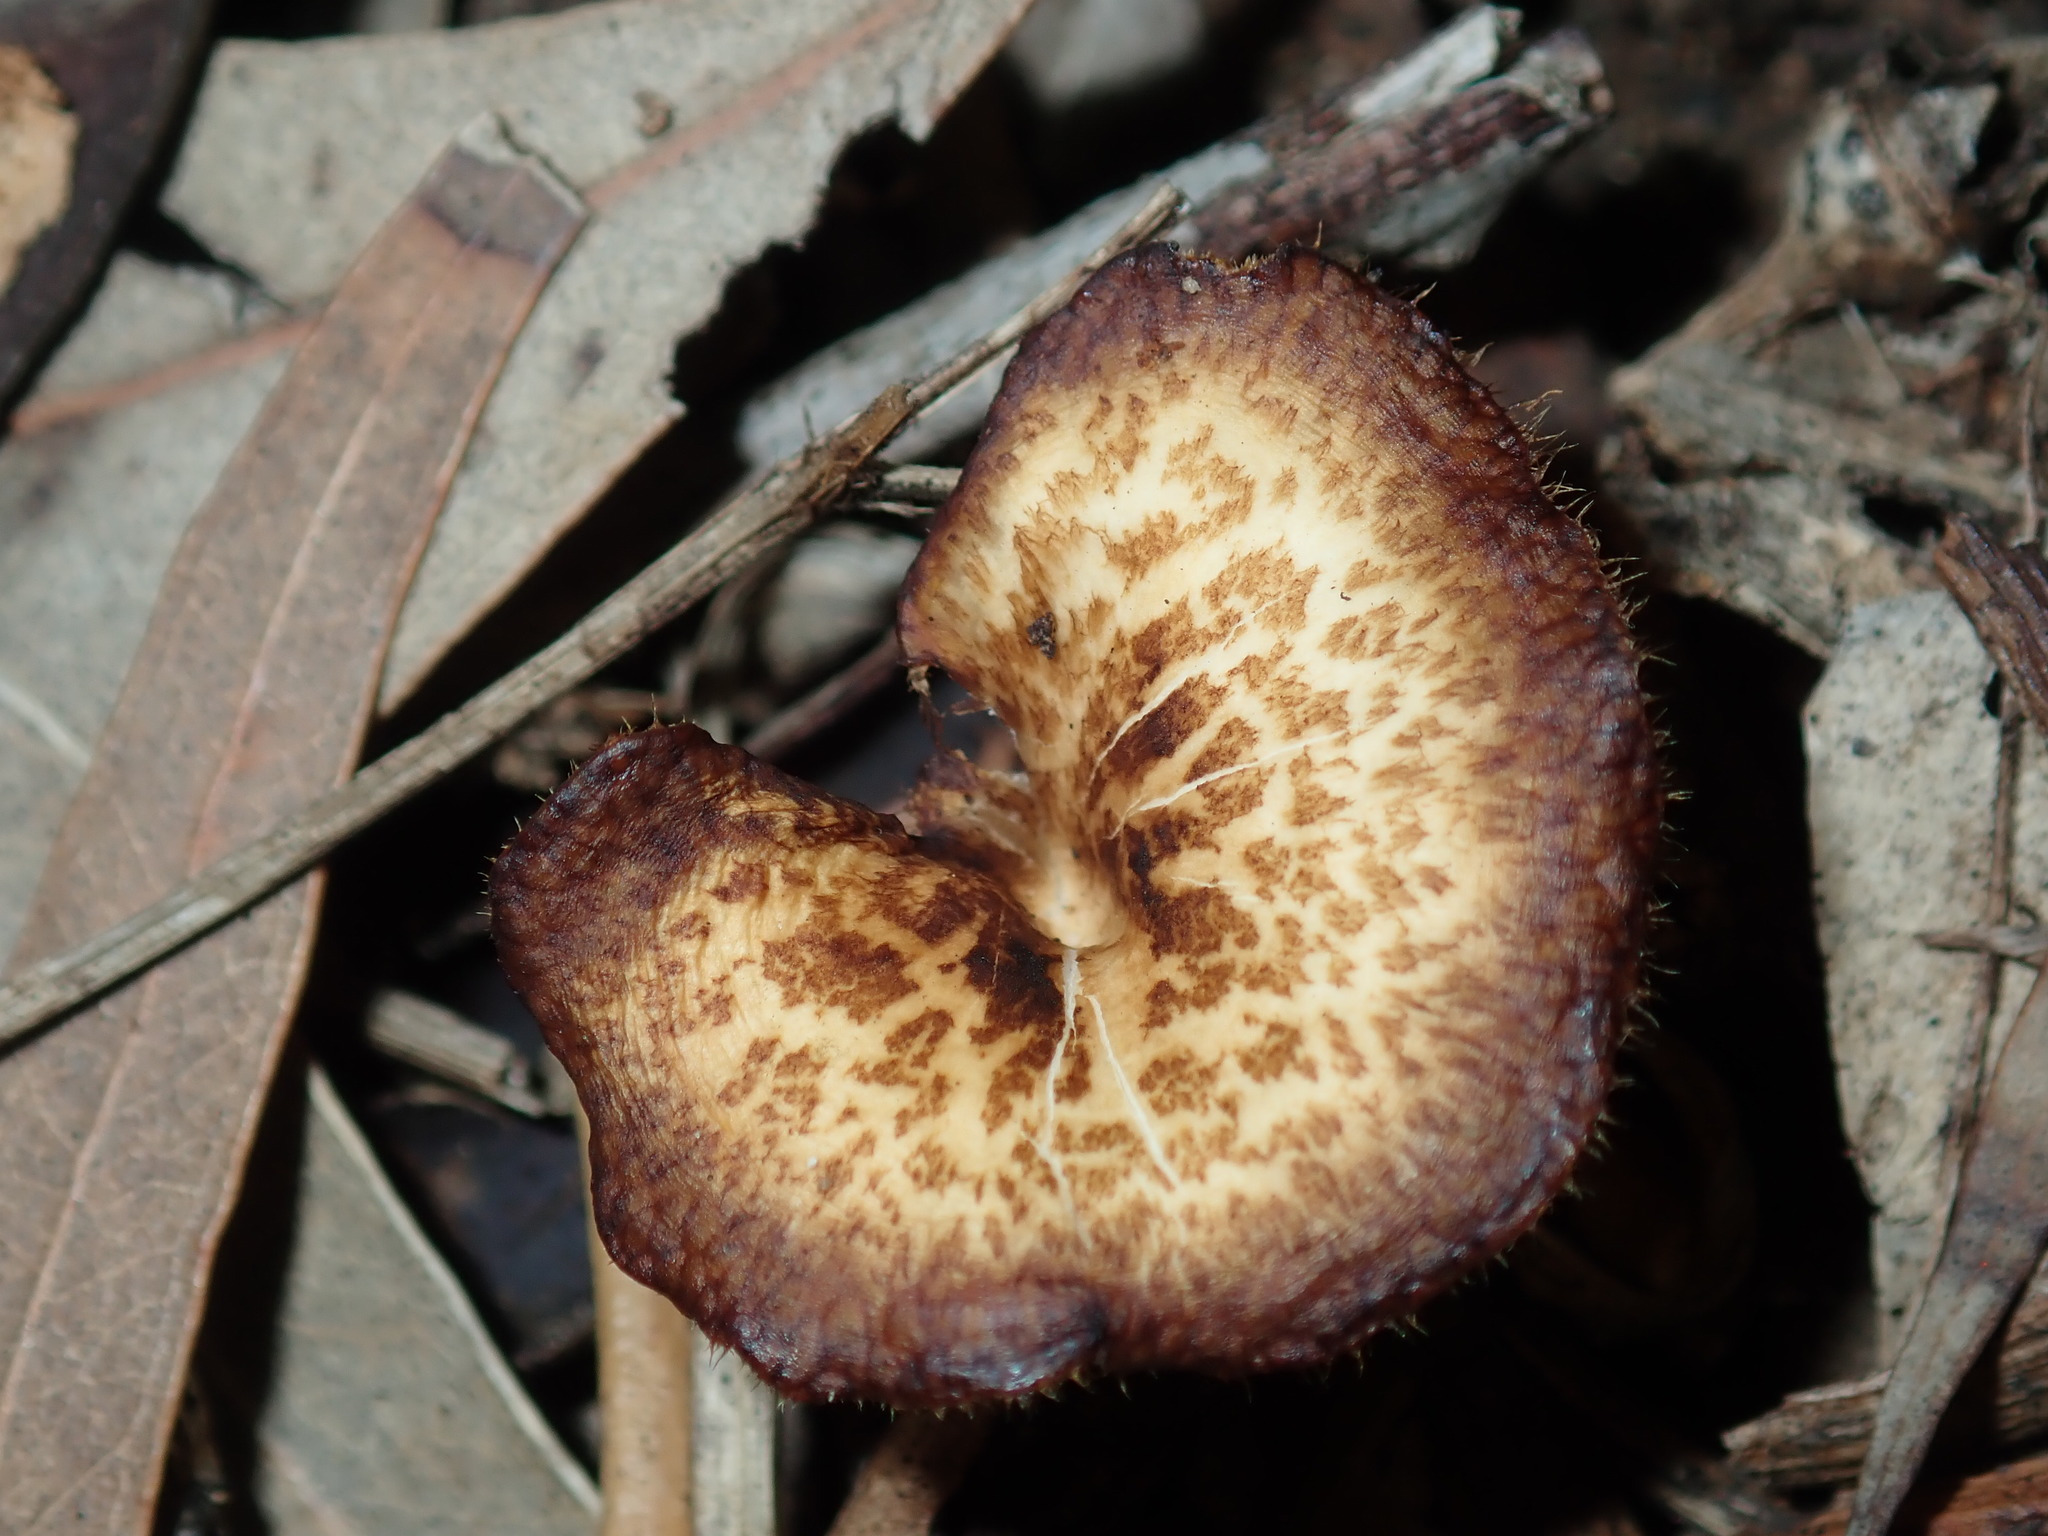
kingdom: Fungi
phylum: Basidiomycota
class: Agaricomycetes
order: Polyporales
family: Polyporaceae
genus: Lentinus
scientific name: Lentinus arcularius
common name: Spring polypore
